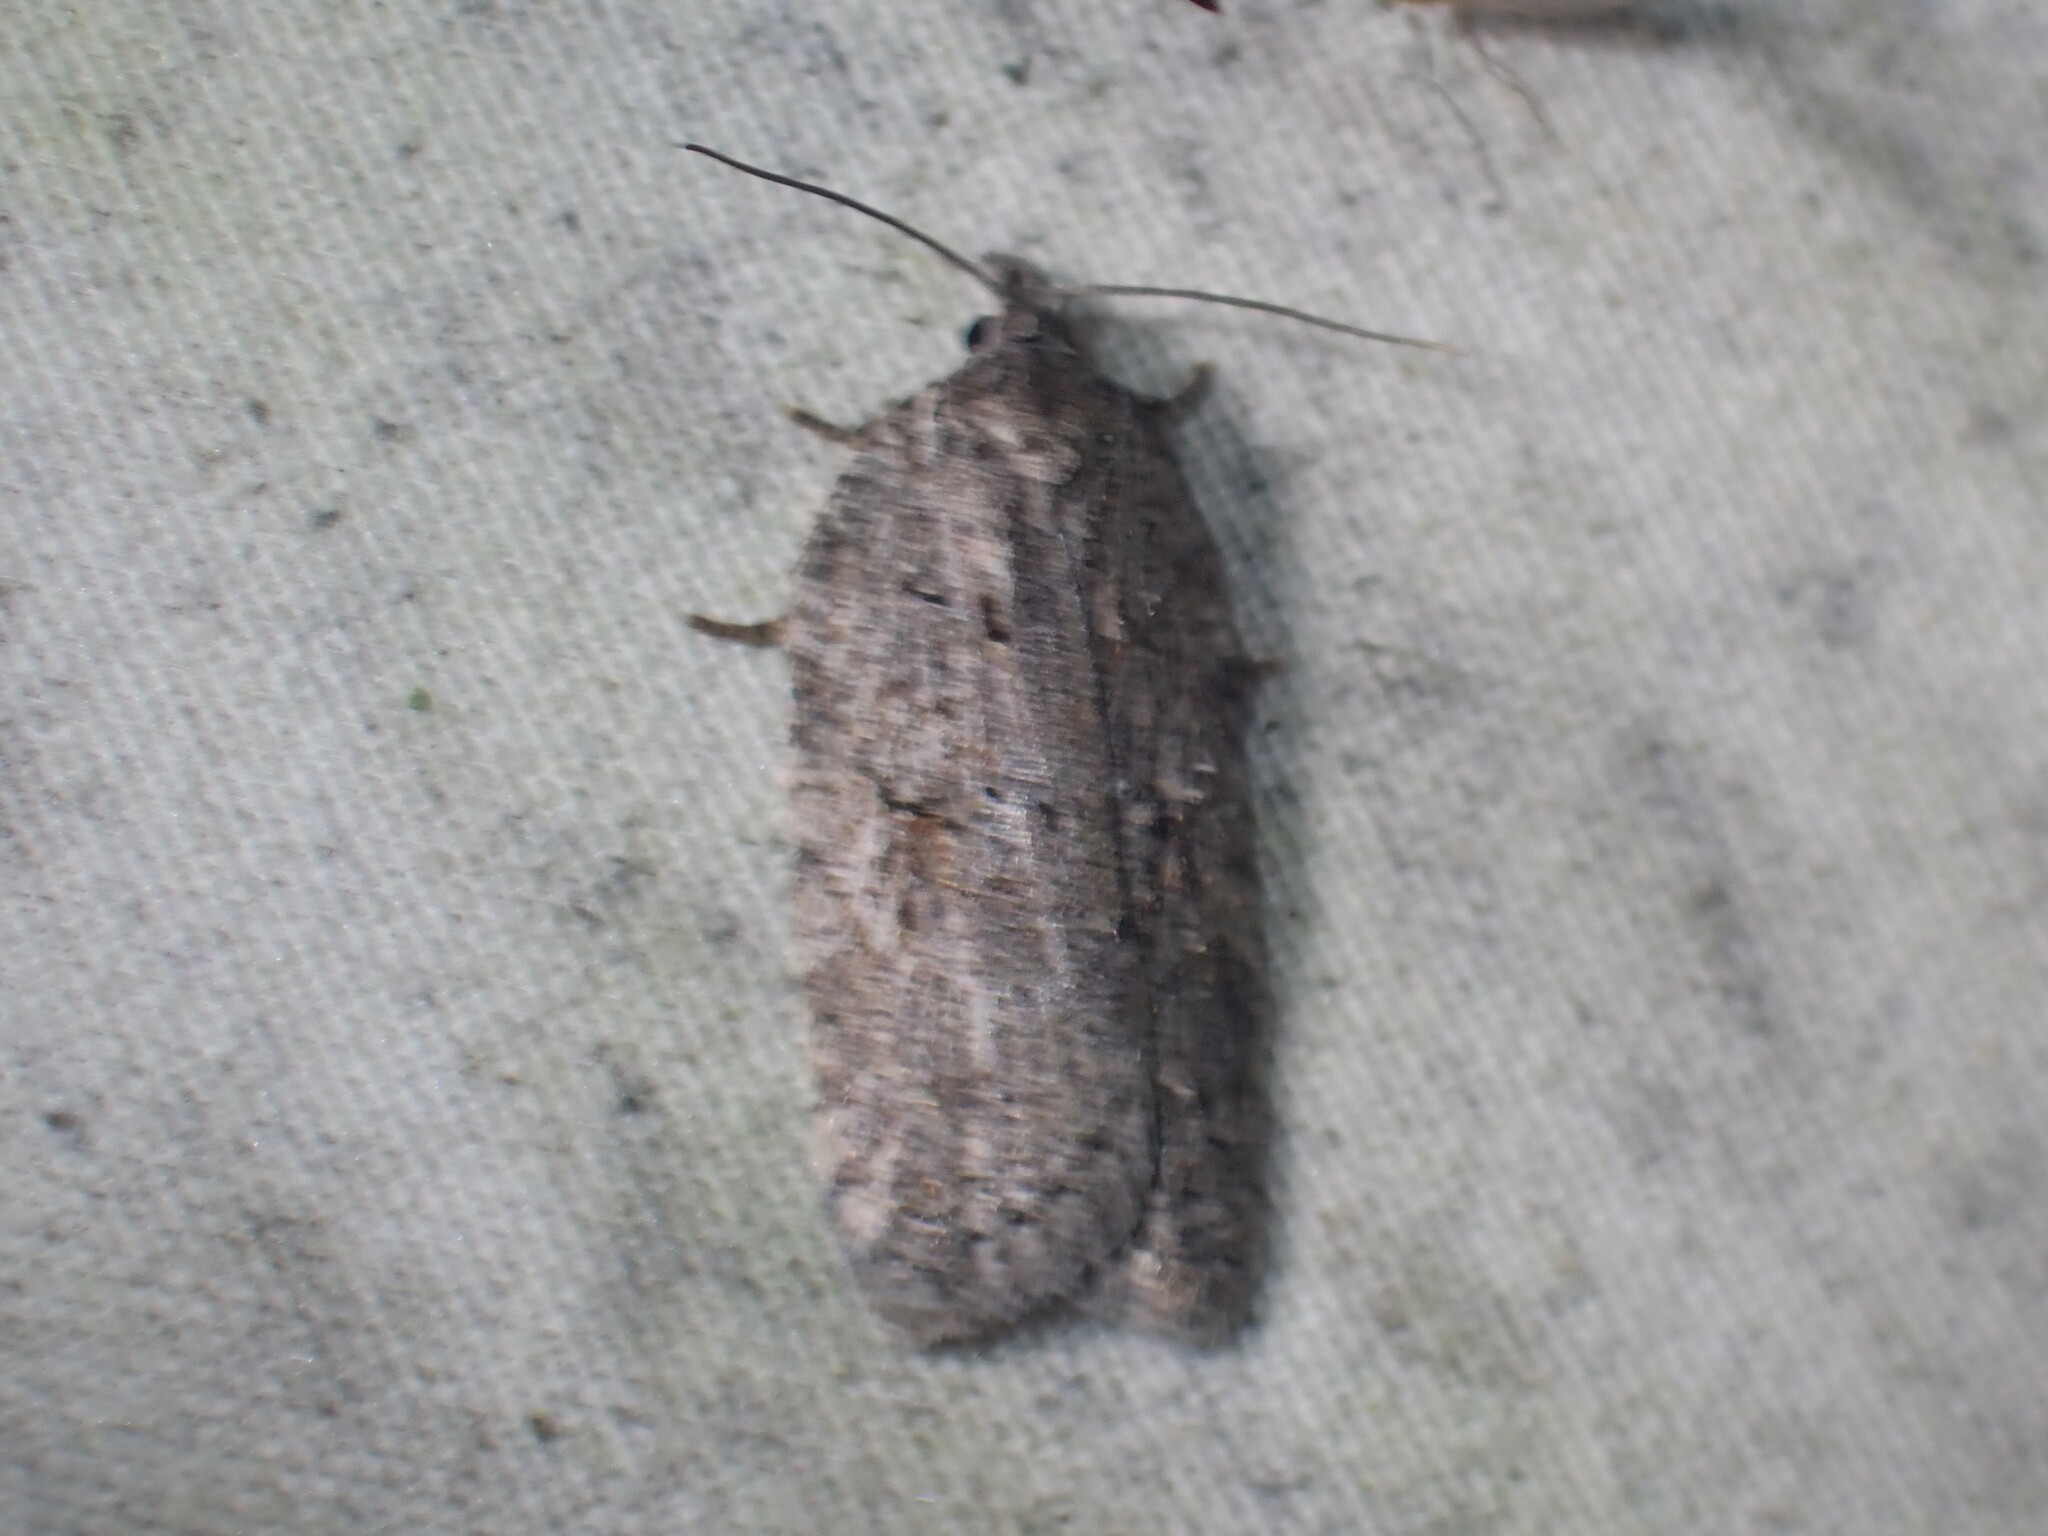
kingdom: Animalia
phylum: Arthropoda
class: Insecta
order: Lepidoptera
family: Tortricidae
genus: Acleris
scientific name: Acleris maximana
